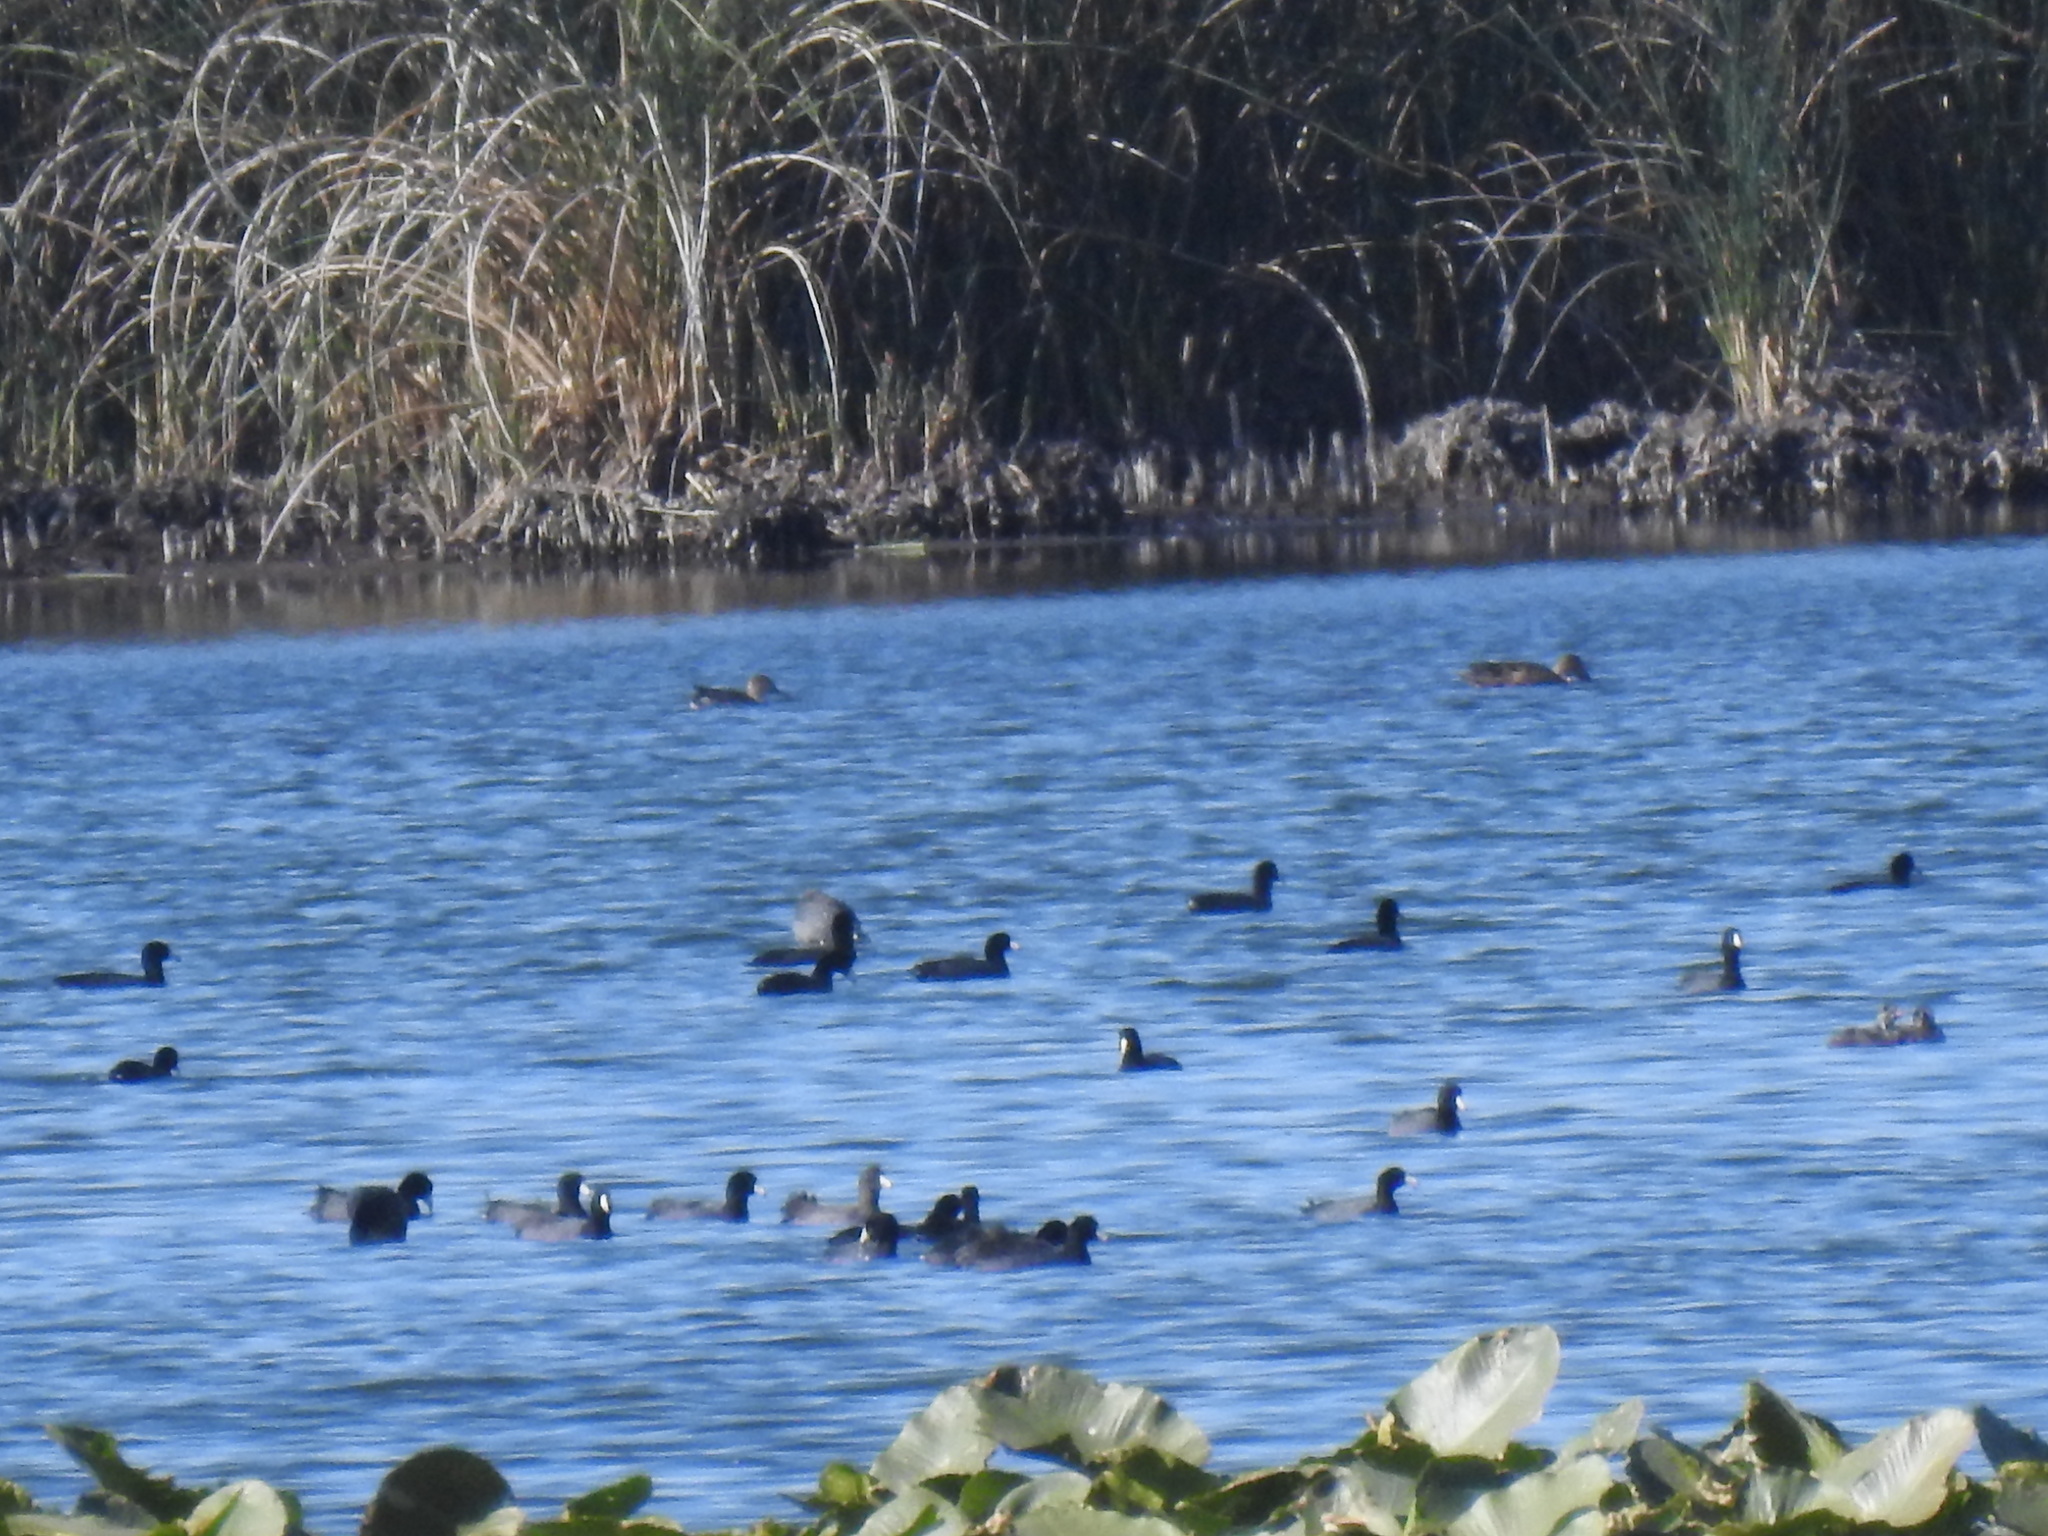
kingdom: Animalia
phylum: Chordata
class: Aves
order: Gruiformes
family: Rallidae
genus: Fulica
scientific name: Fulica americana
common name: American coot
